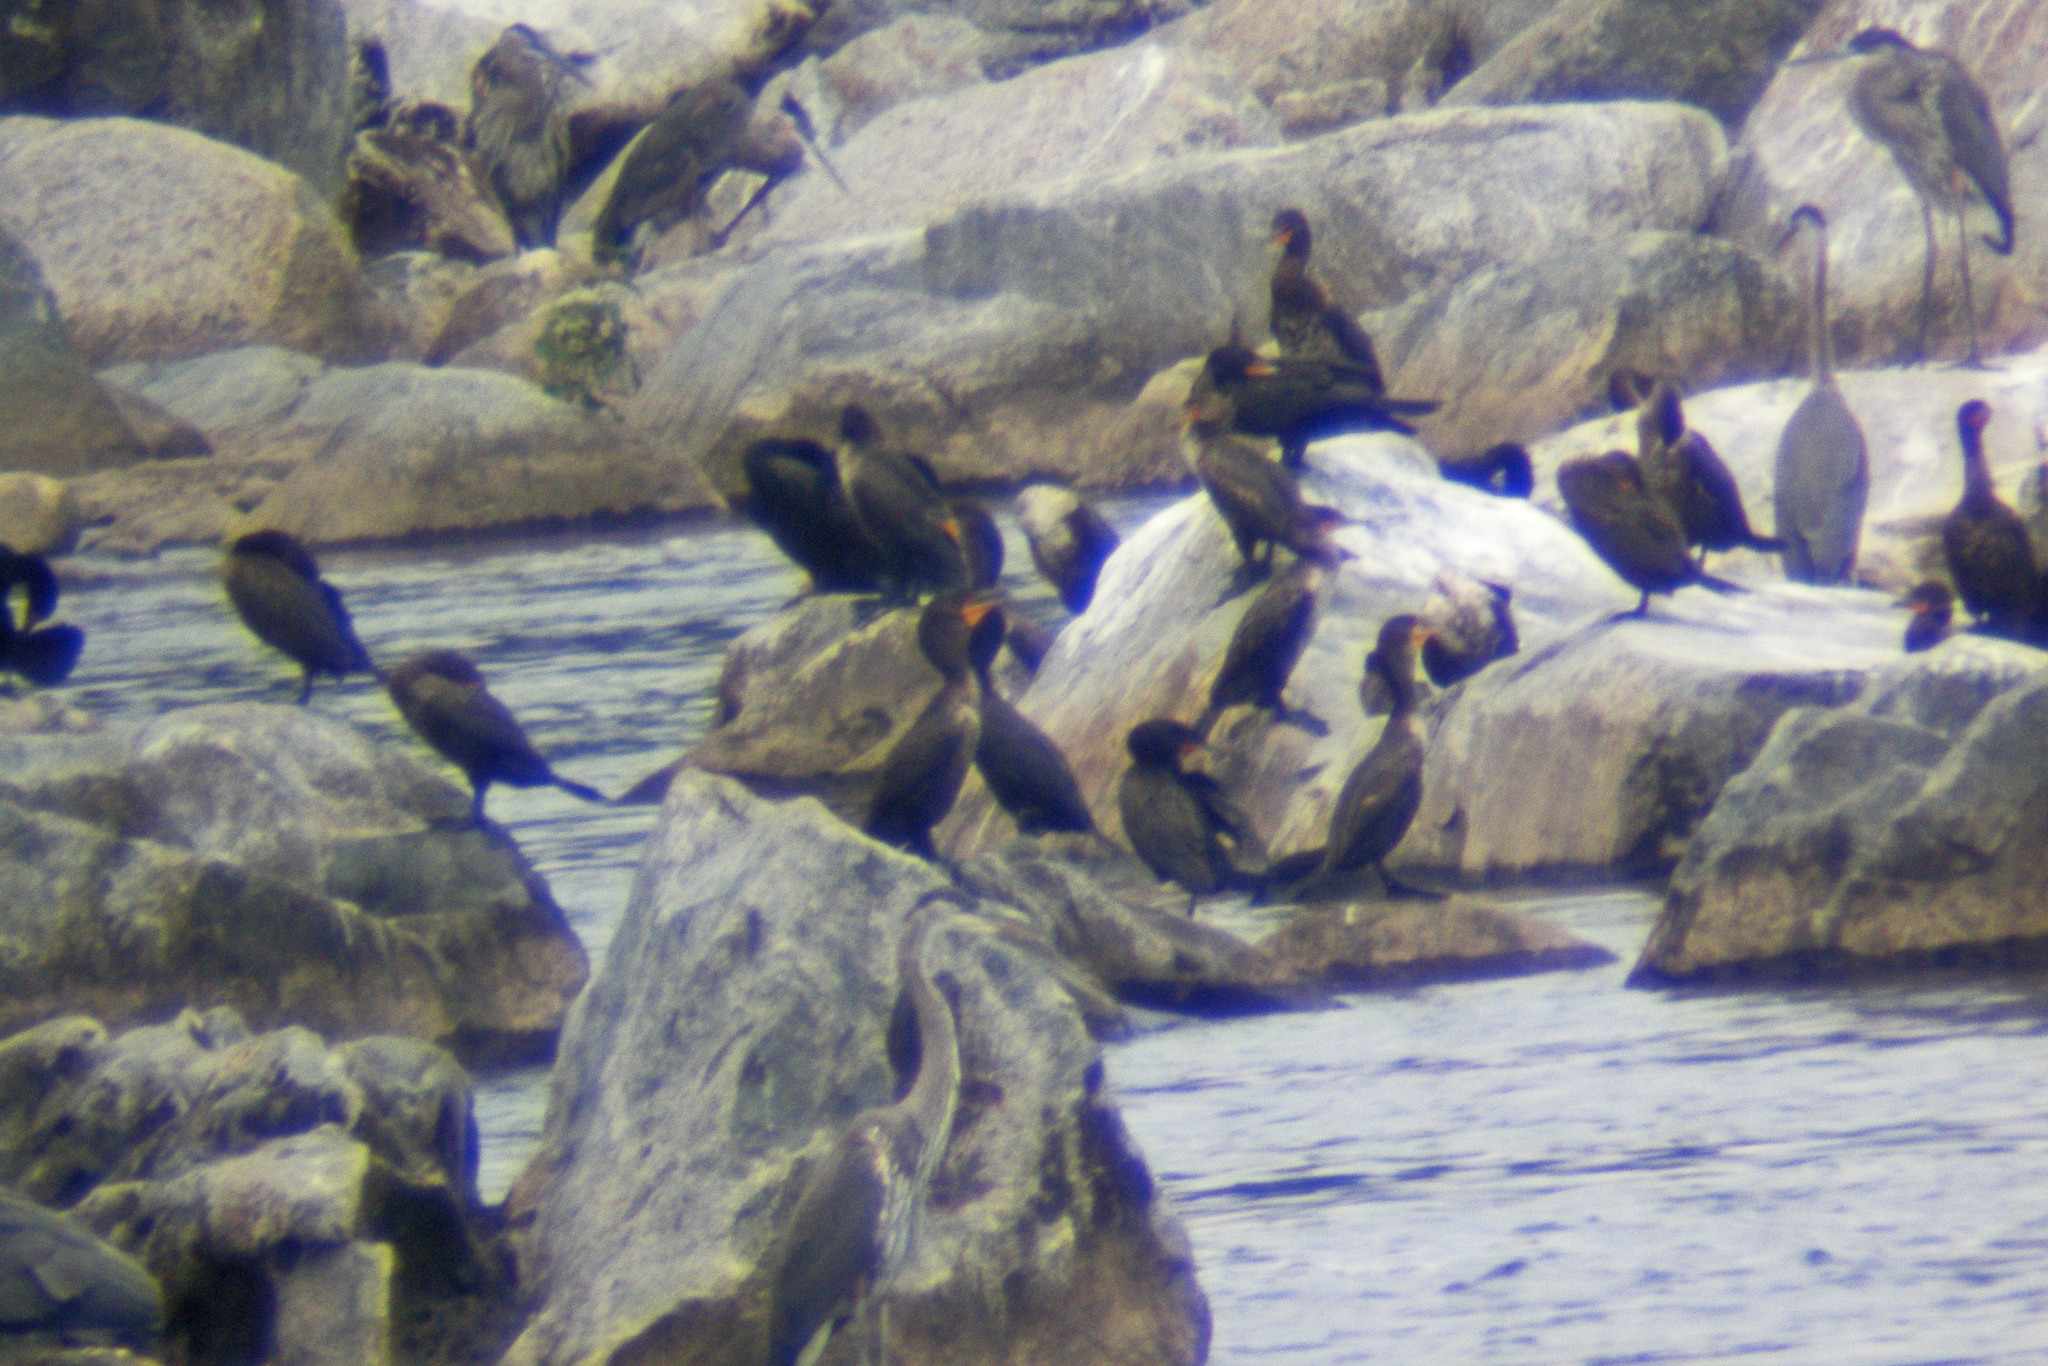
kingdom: Animalia
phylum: Chordata
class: Aves
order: Pelecaniformes
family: Ardeidae
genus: Ardea
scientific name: Ardea herodias
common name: Great blue heron
